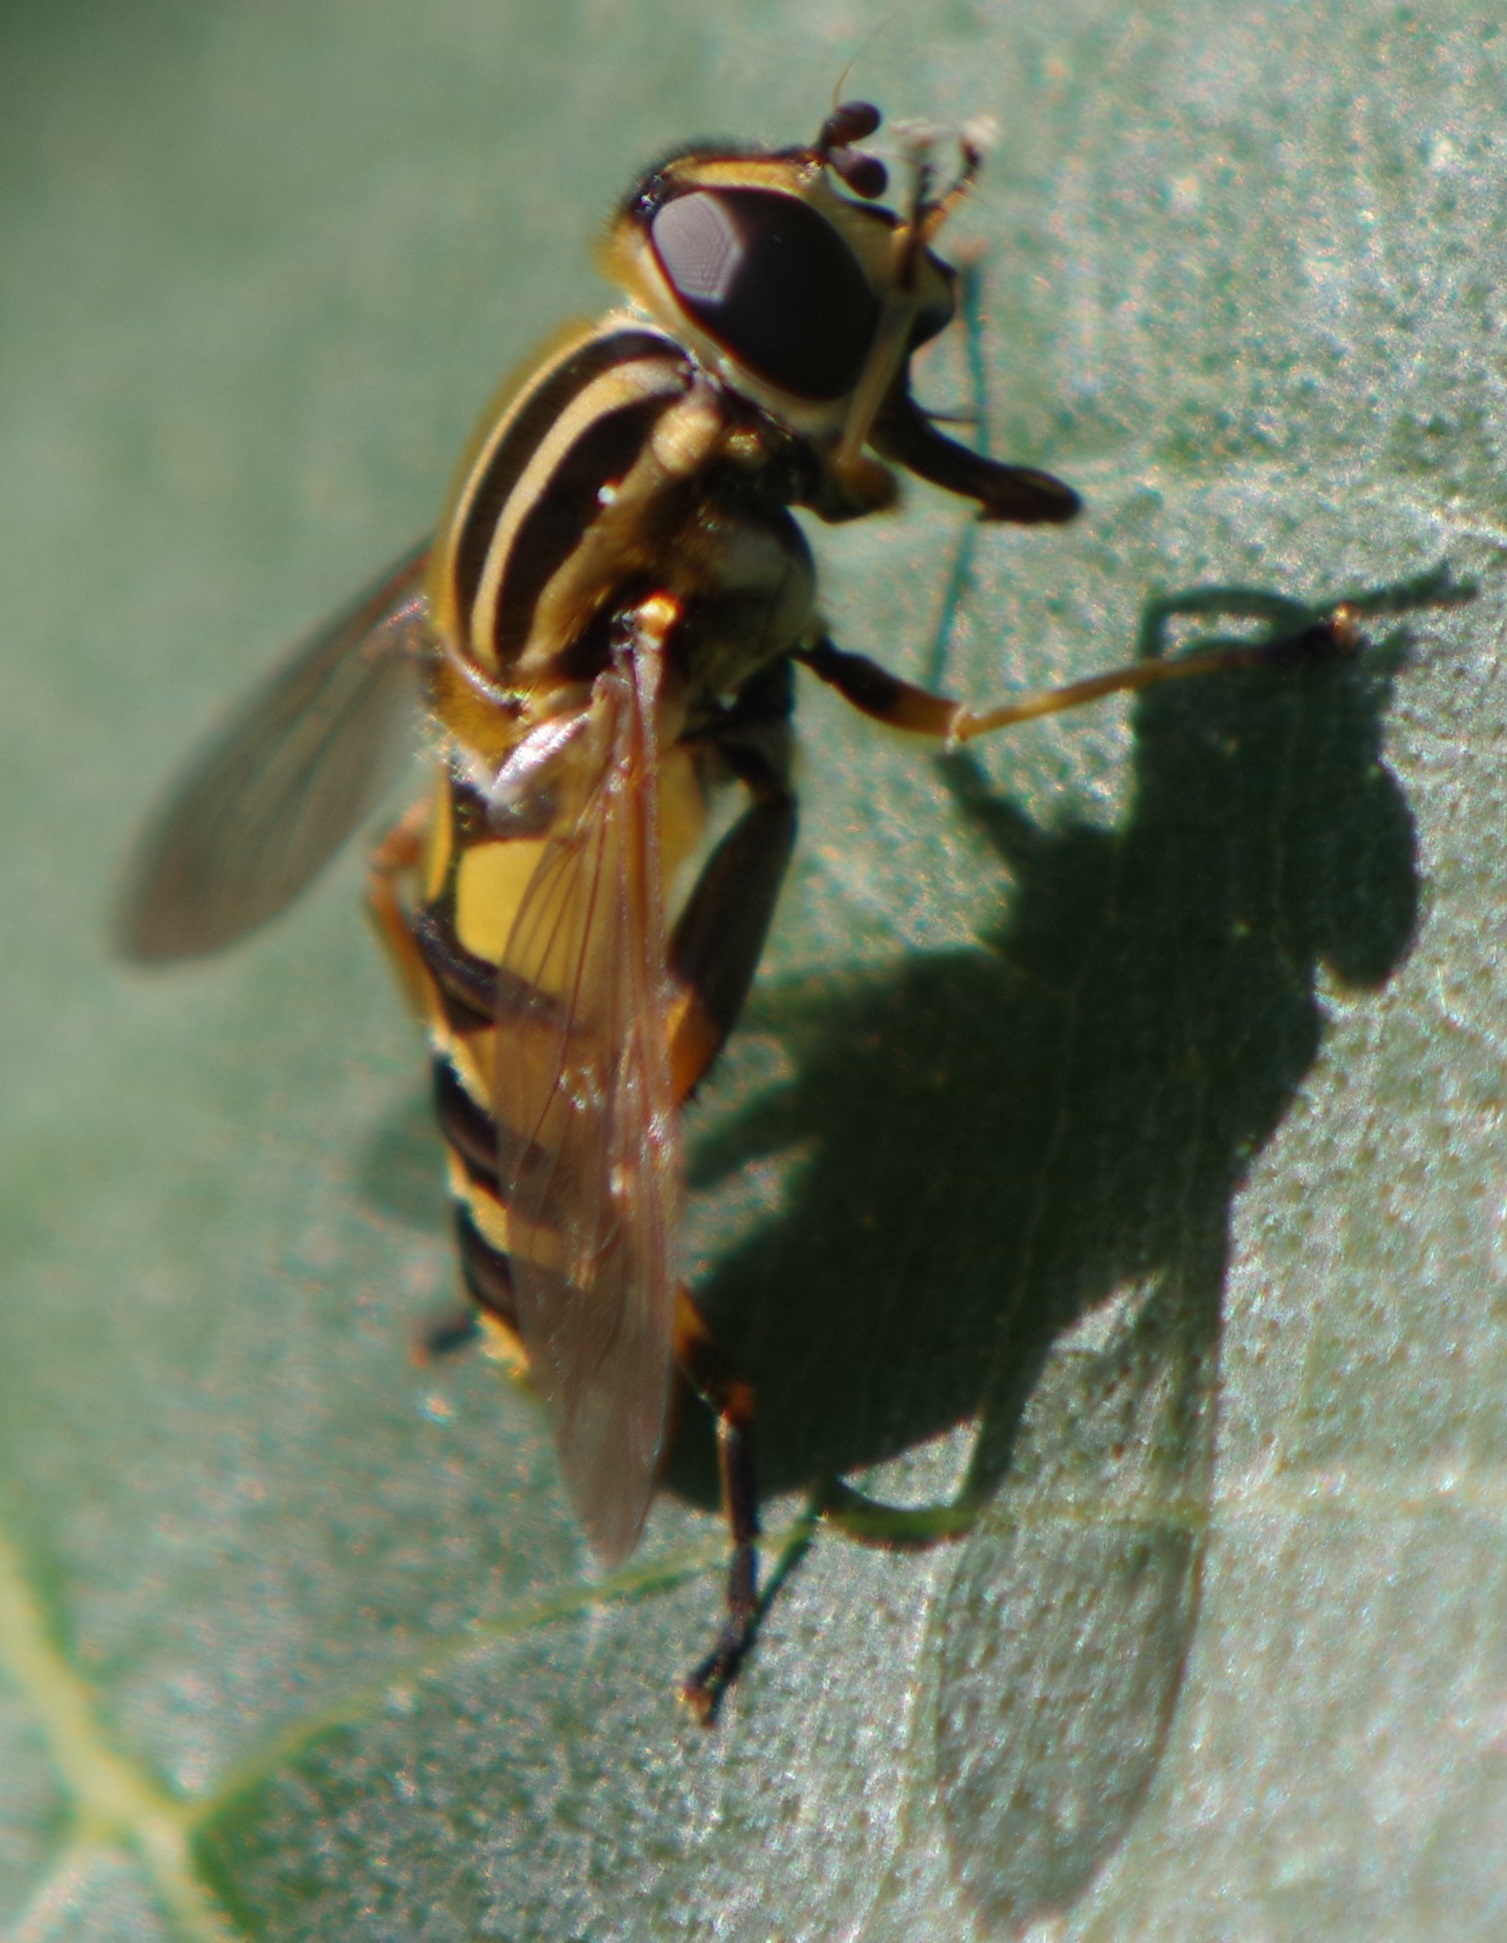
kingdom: Animalia
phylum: Arthropoda
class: Insecta
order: Diptera
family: Syrphidae
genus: Helophilus
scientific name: Helophilus pendulus
